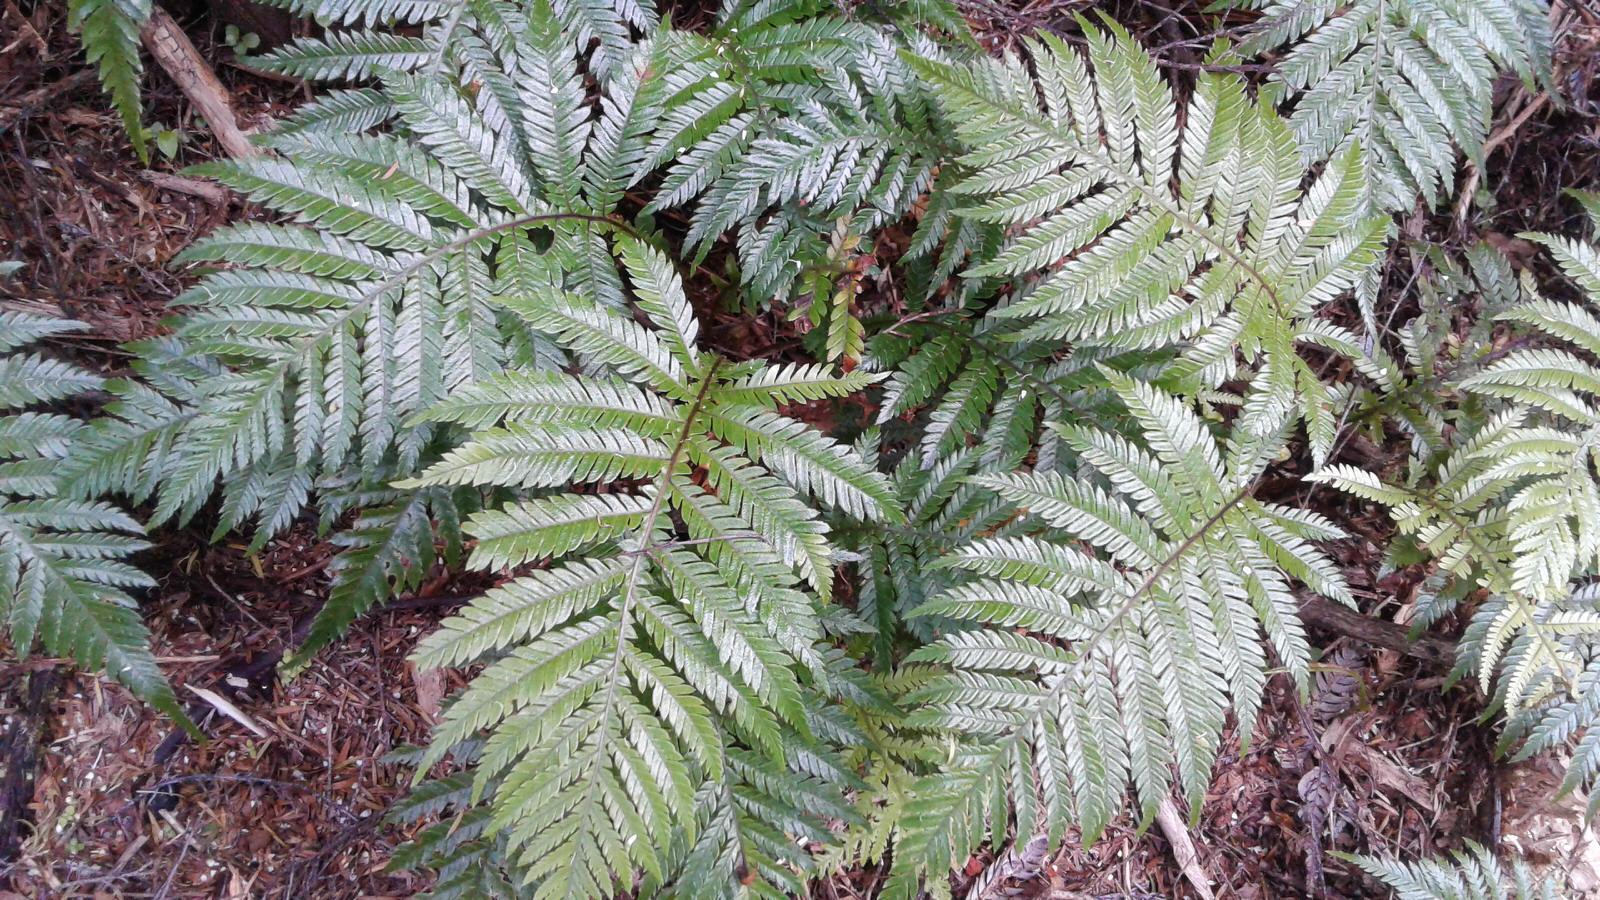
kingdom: Plantae
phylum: Tracheophyta
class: Polypodiopsida
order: Polypodiales
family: Blechnaceae
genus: Diploblechnum
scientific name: Diploblechnum fraseri
